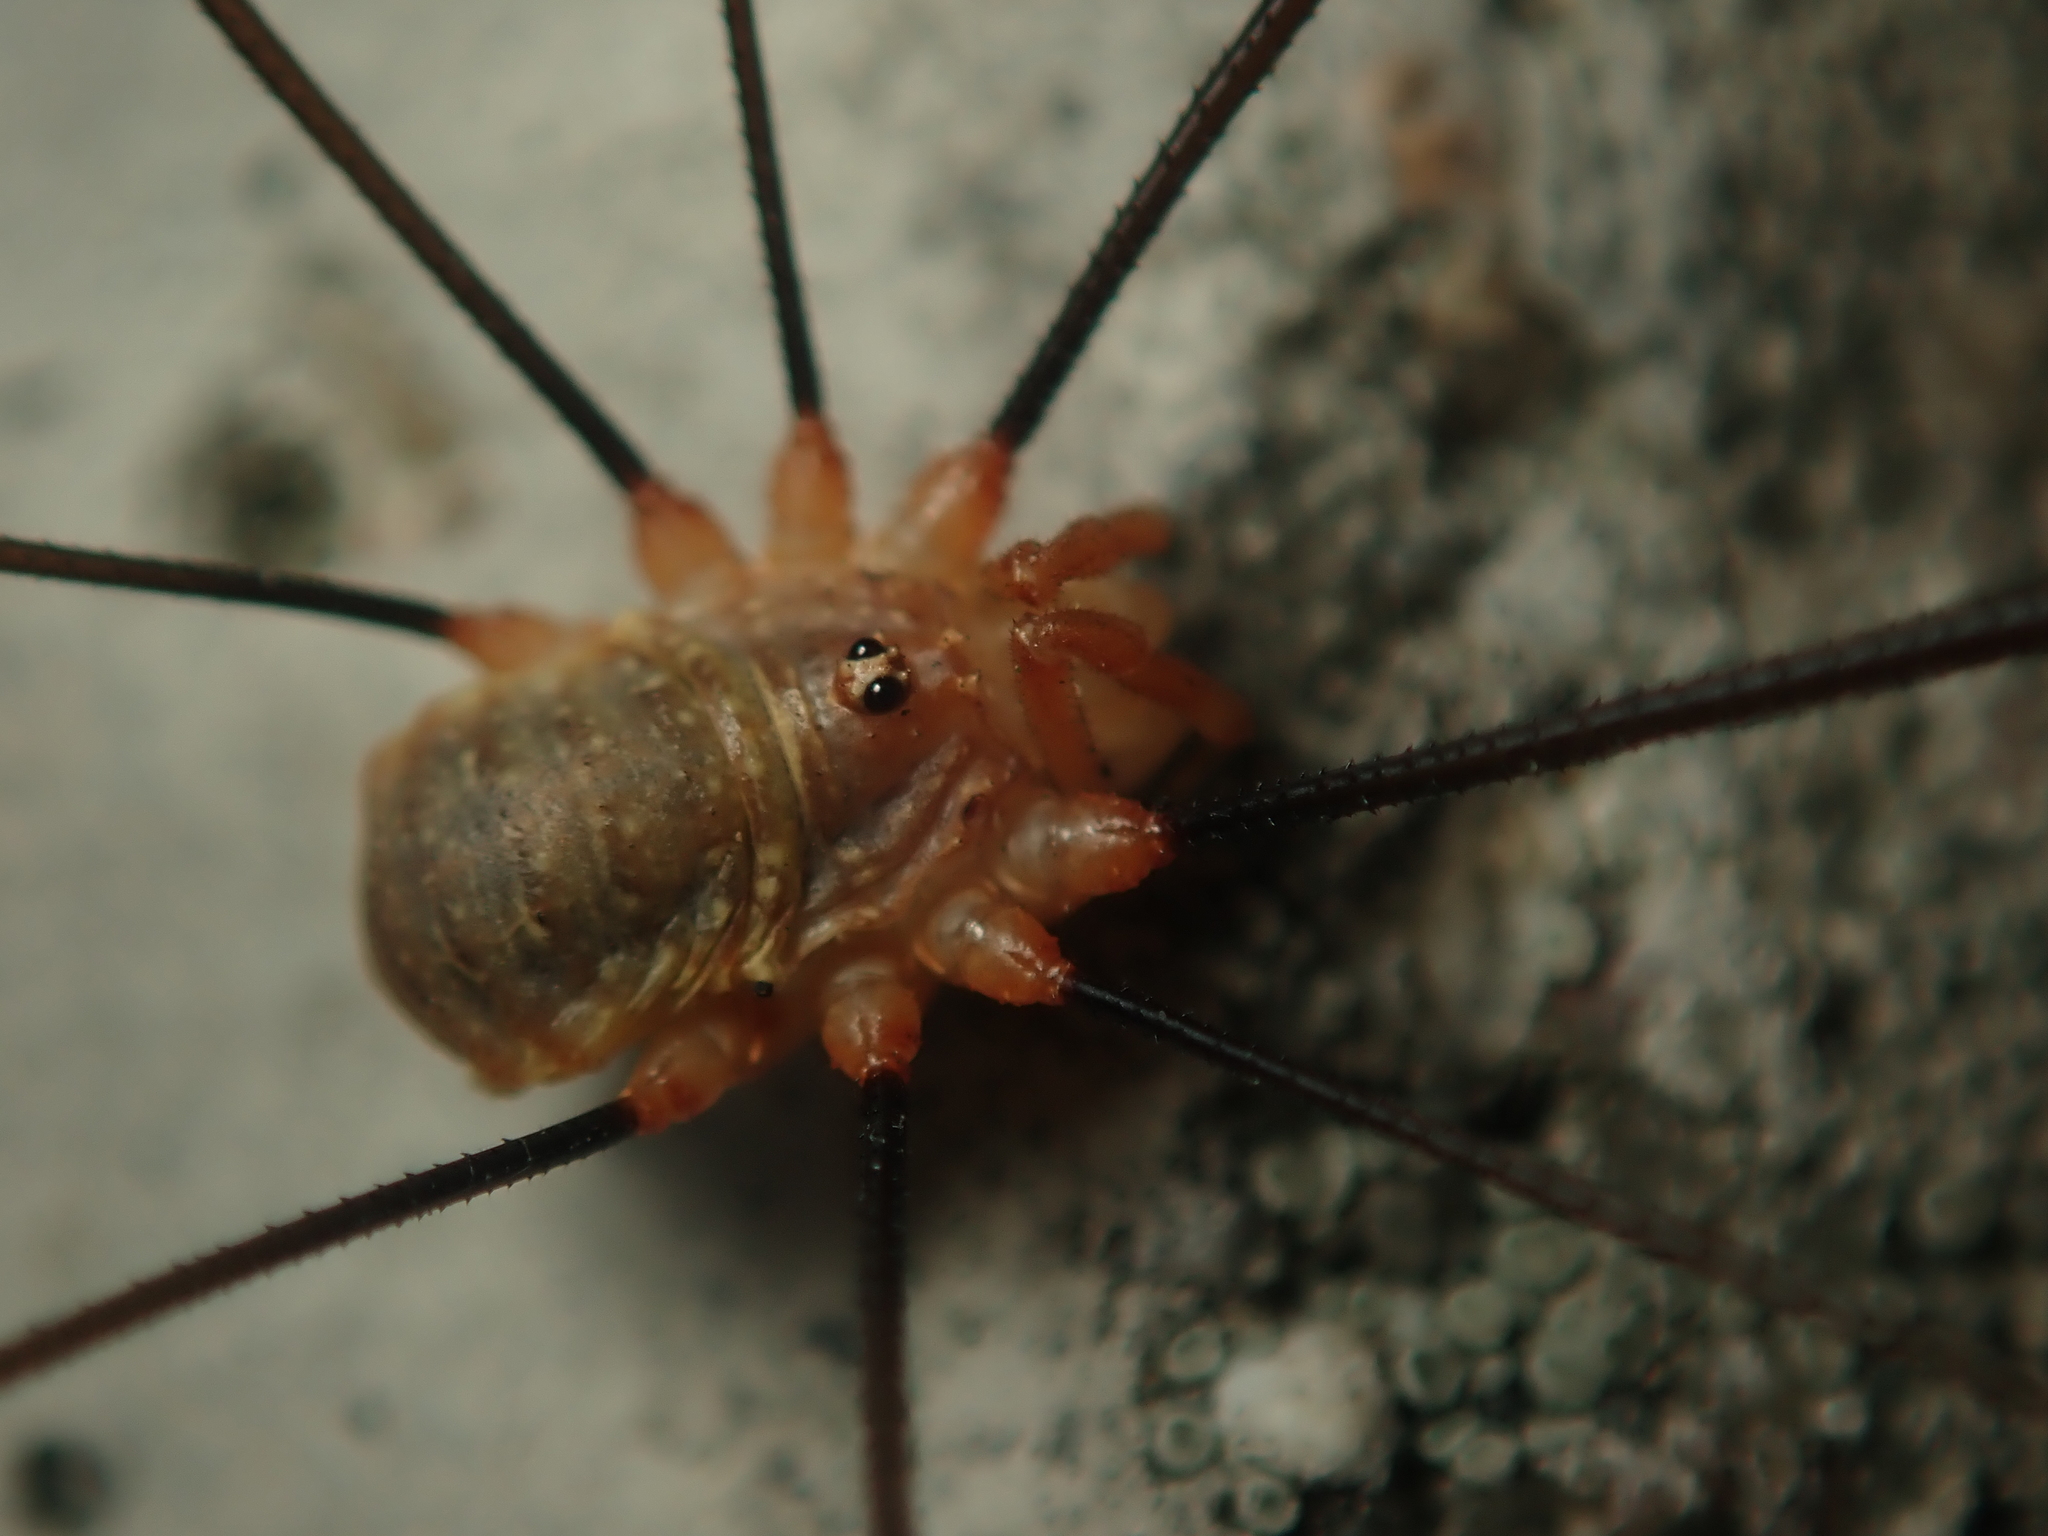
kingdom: Animalia
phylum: Arthropoda
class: Arachnida
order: Opiliones
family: Phalangiidae
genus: Opilio
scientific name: Opilio canestrinii
